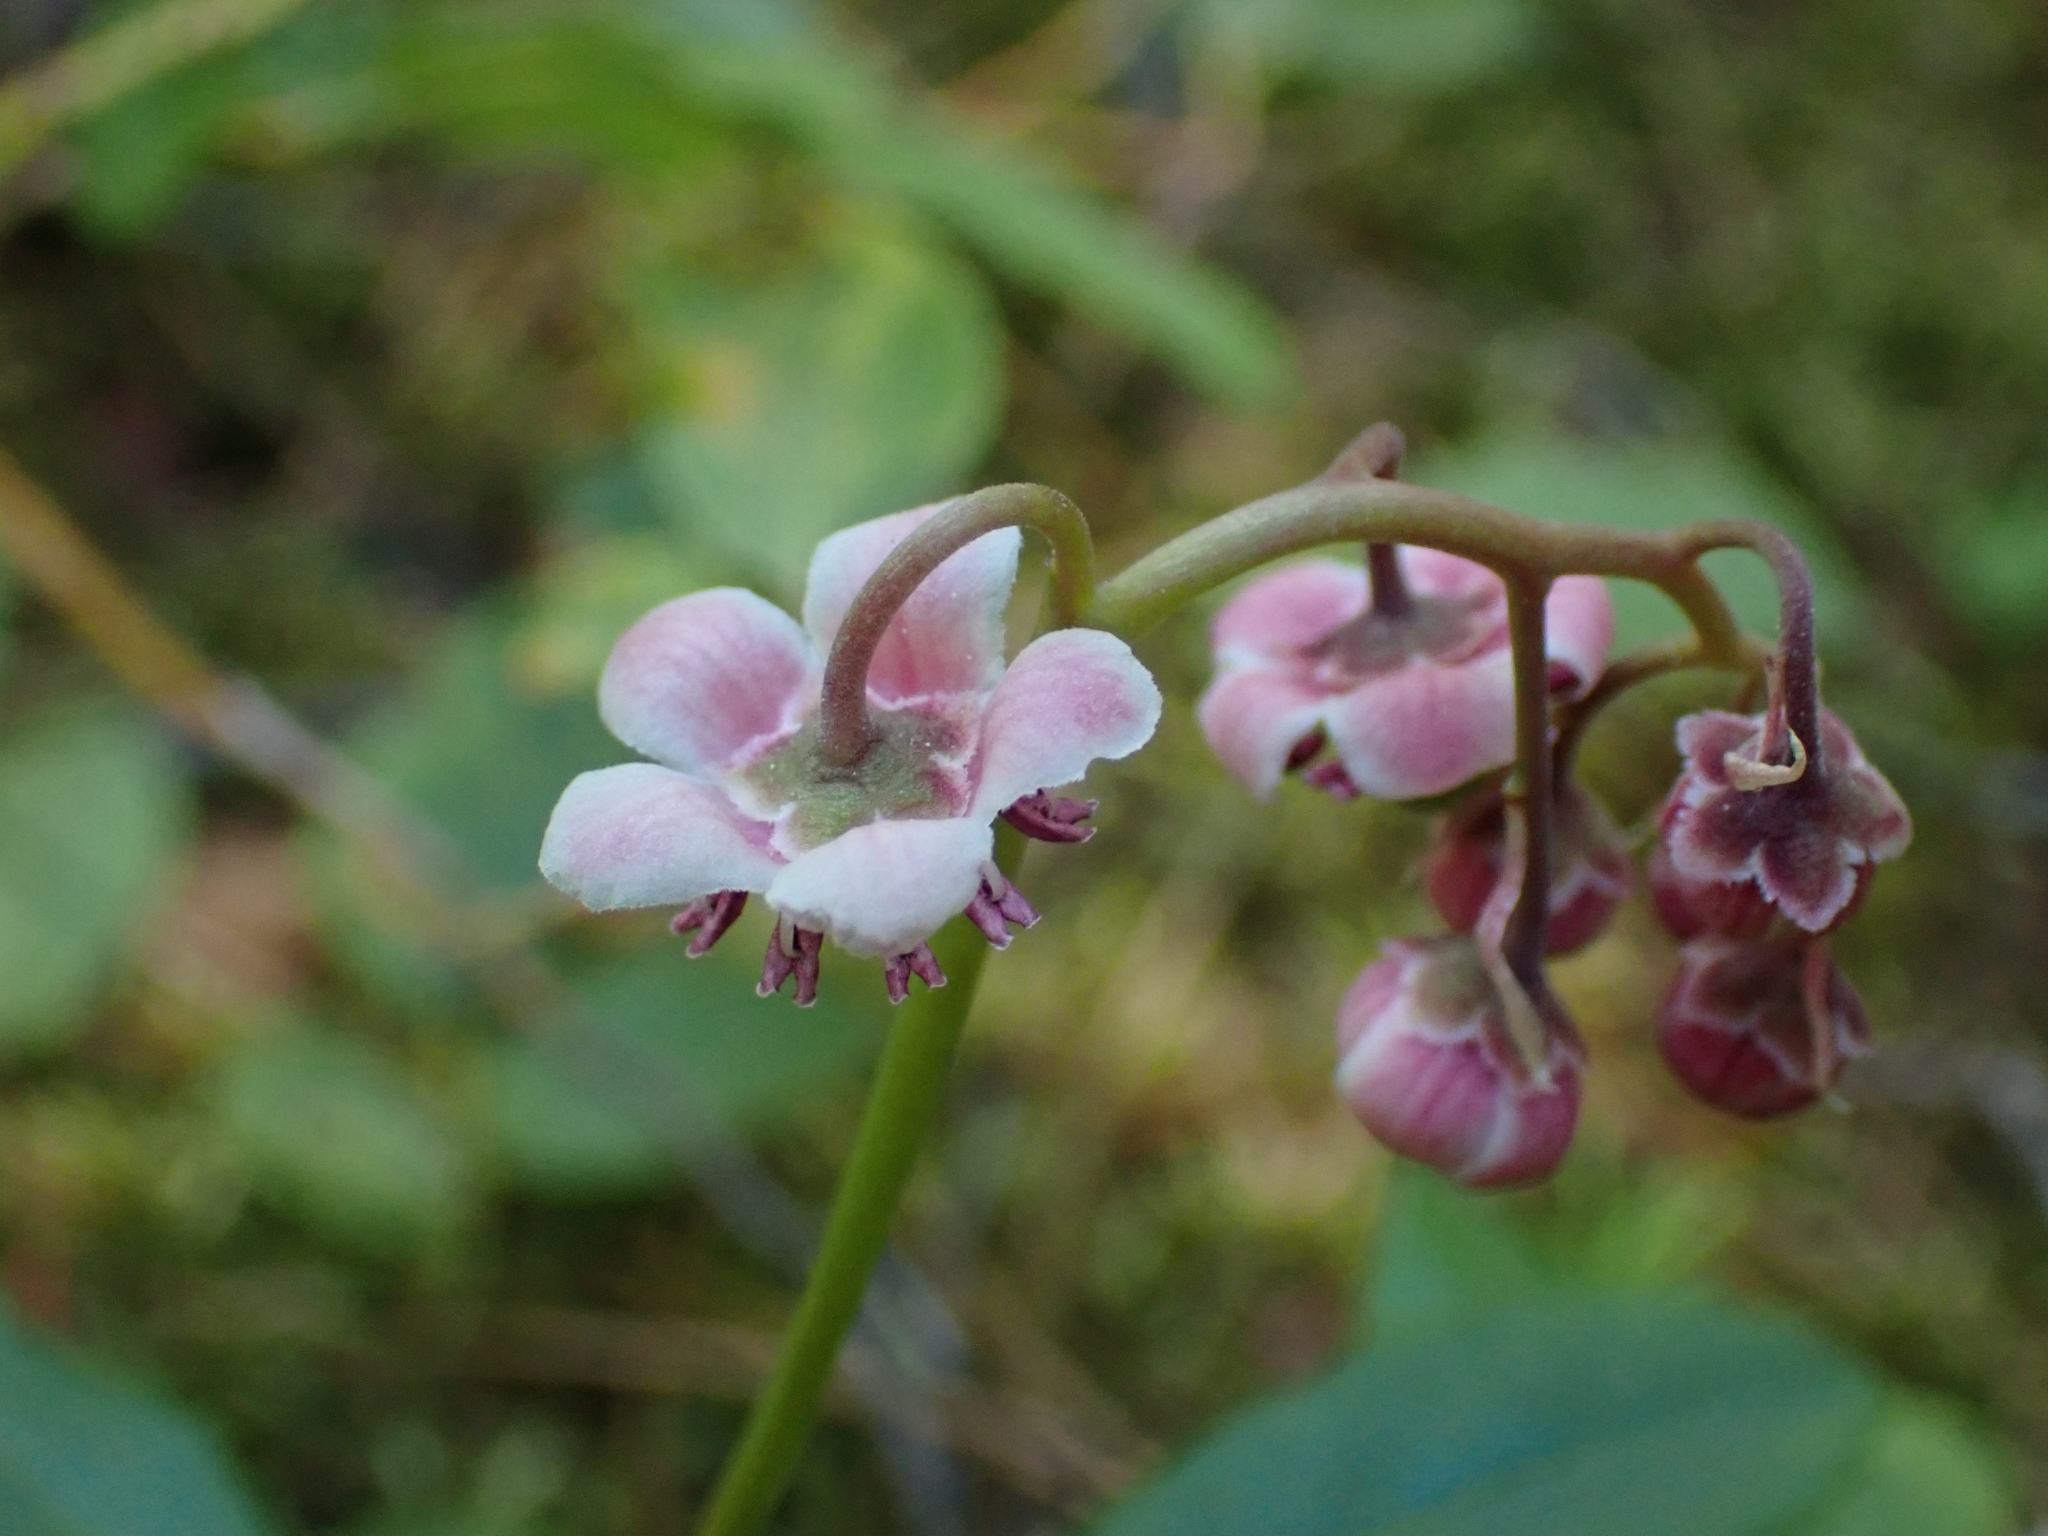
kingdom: Plantae
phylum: Tracheophyta
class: Magnoliopsida
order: Ericales
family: Ericaceae
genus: Chimaphila
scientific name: Chimaphila umbellata
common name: Pipsissewa
